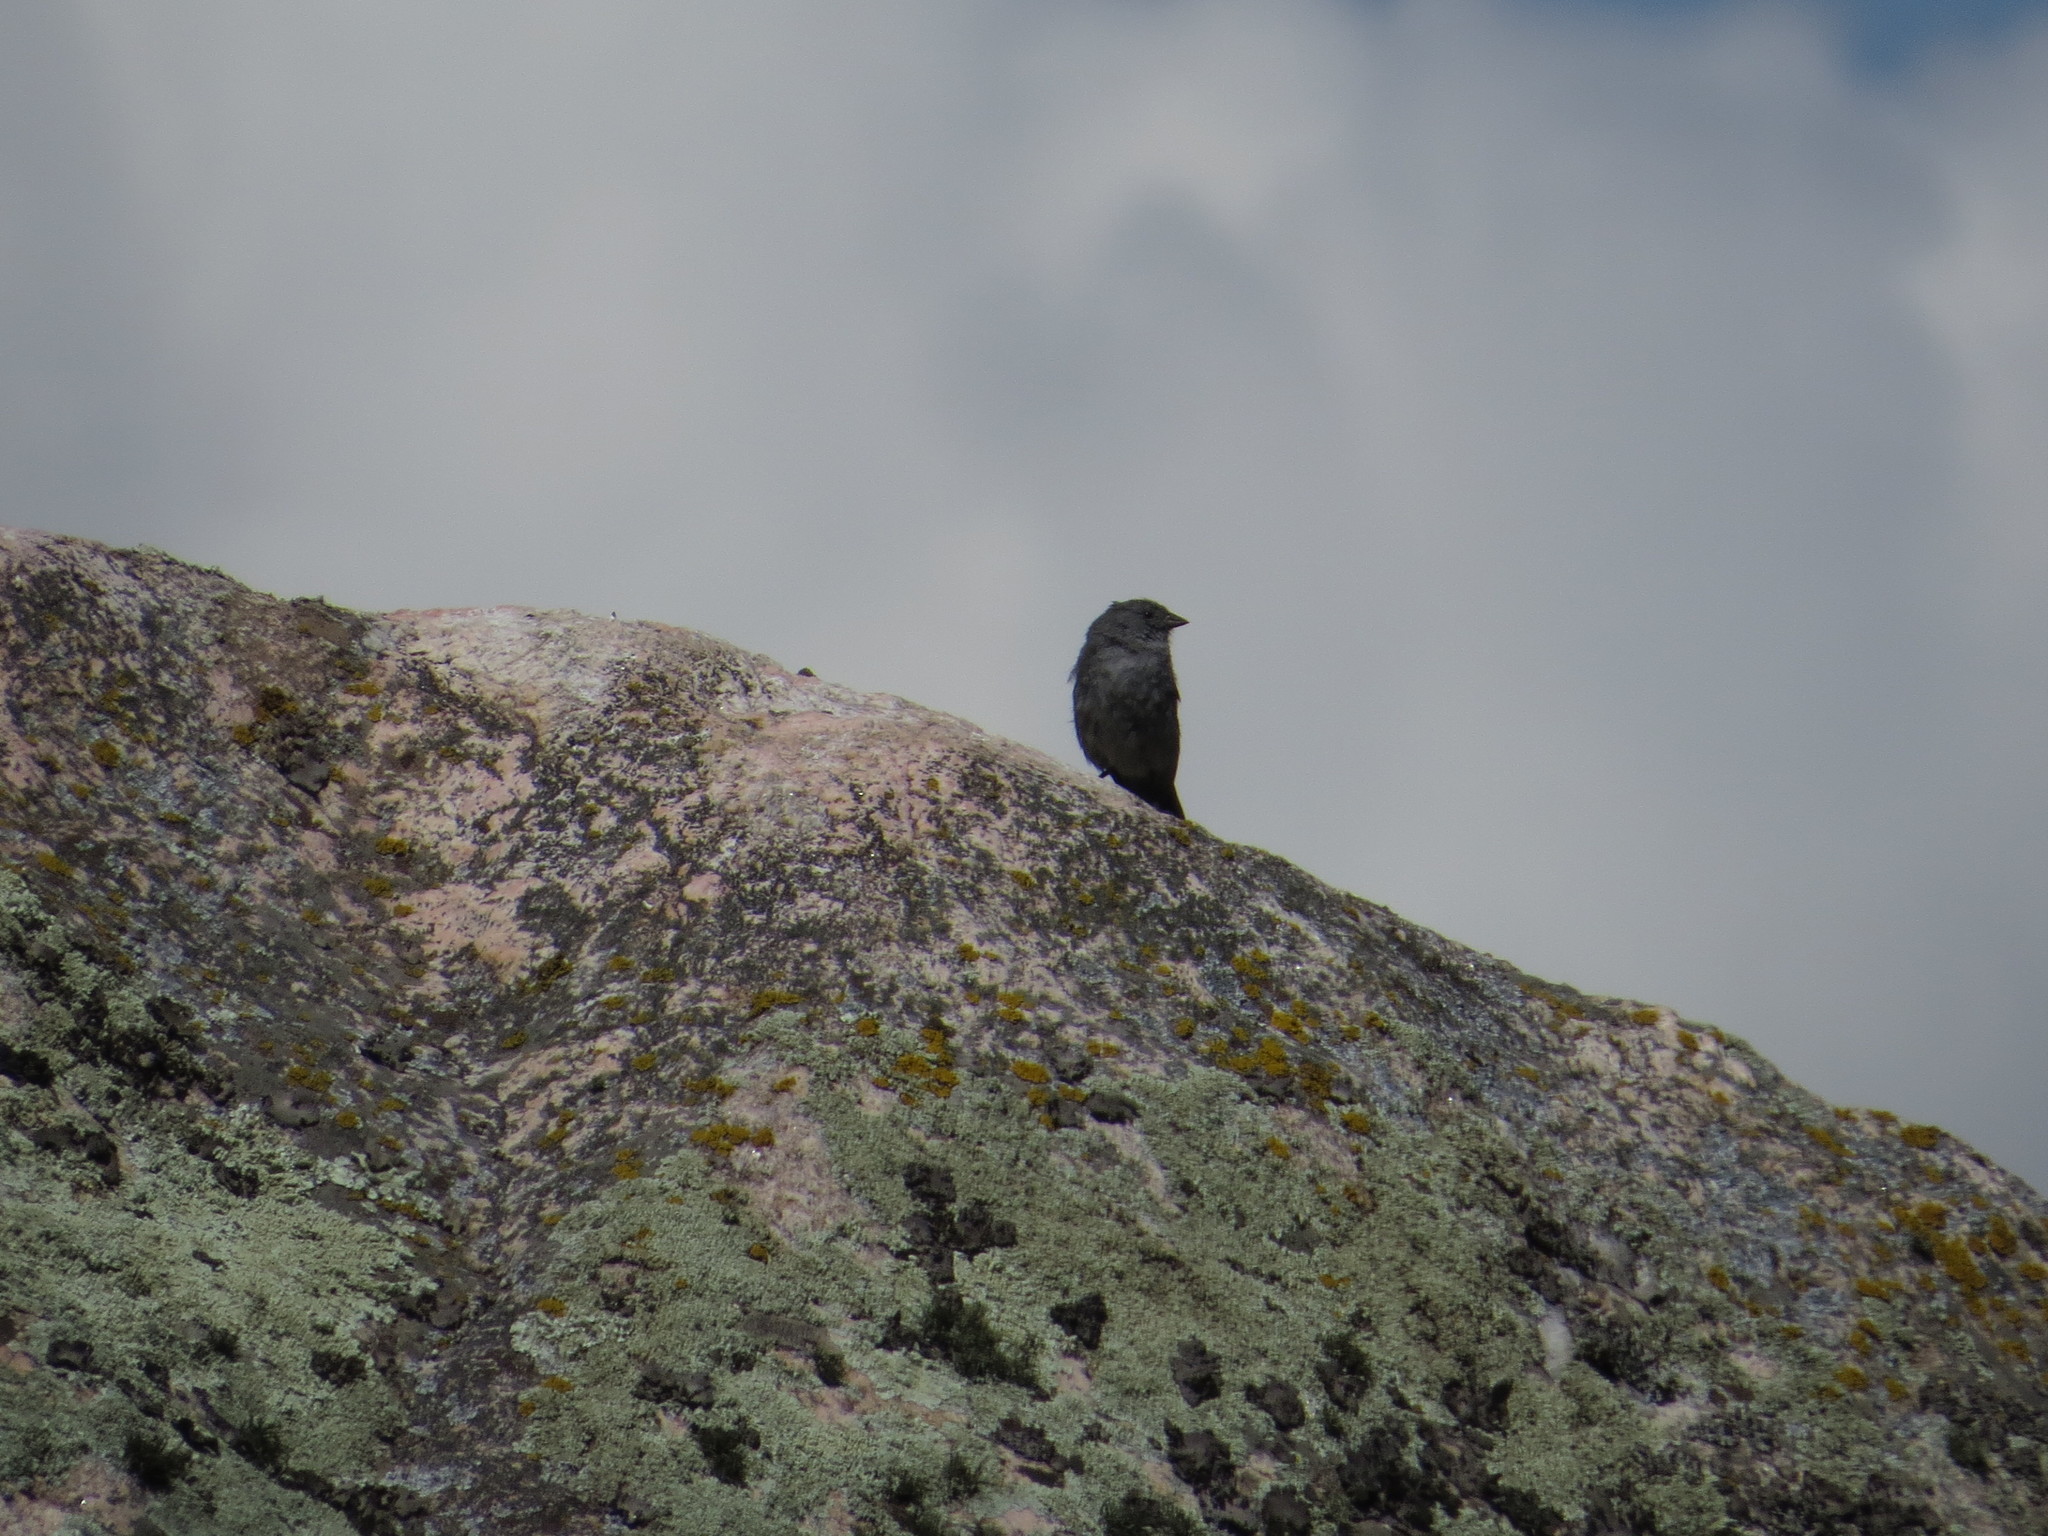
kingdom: Animalia
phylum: Chordata
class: Aves
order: Passeriformes
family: Thraupidae
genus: Geospizopsis
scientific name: Geospizopsis unicolor
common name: Plumbeous sierra-finch
